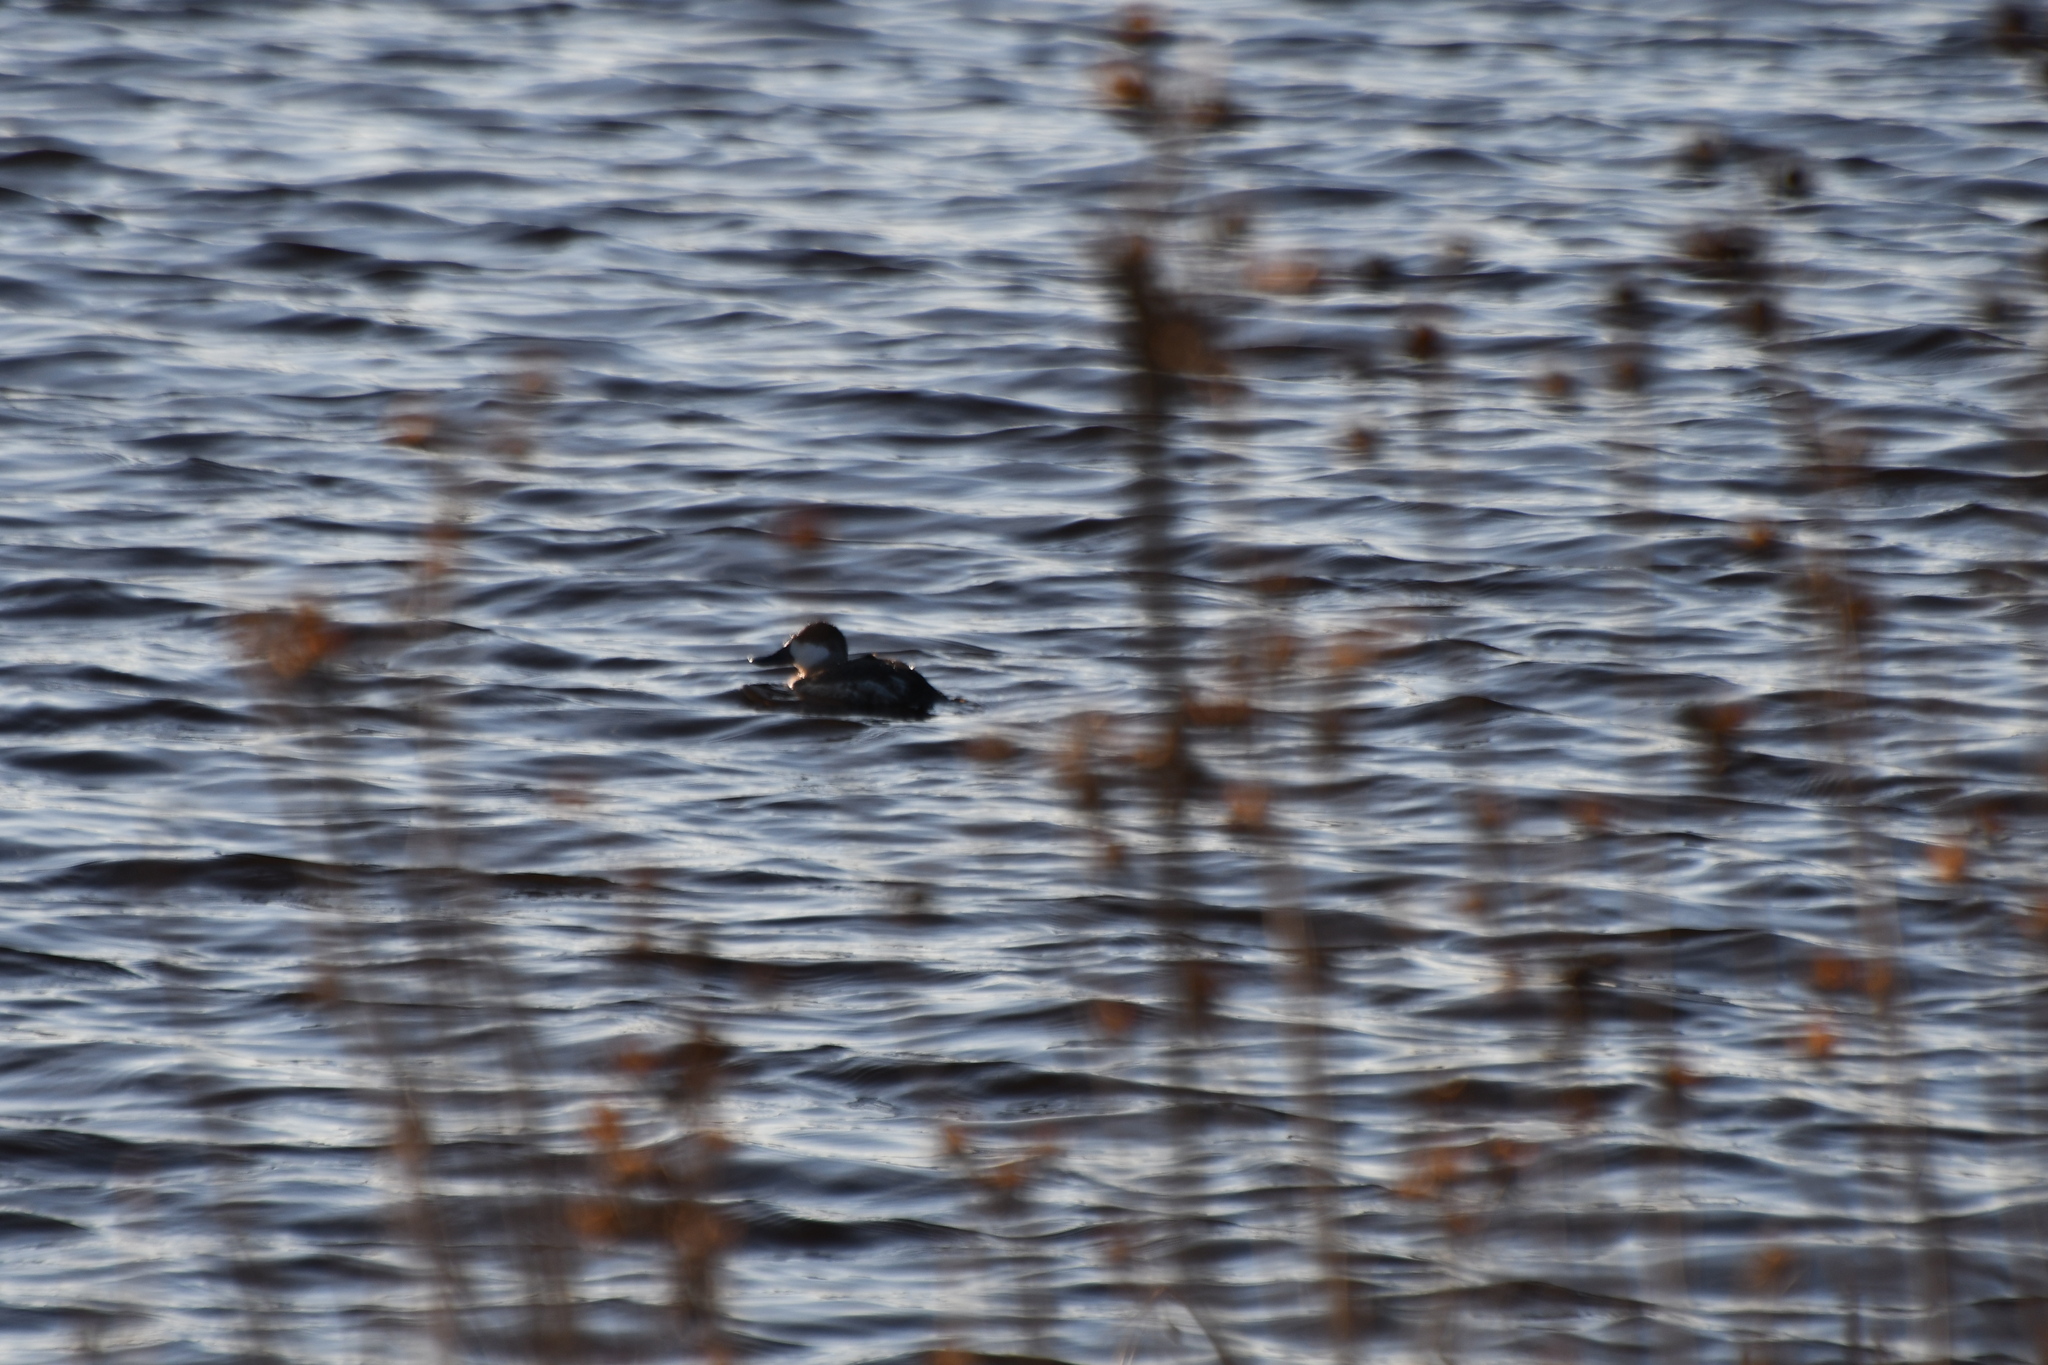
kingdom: Animalia
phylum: Chordata
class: Aves
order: Anseriformes
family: Anatidae
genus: Oxyura
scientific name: Oxyura jamaicensis
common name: Ruddy duck
